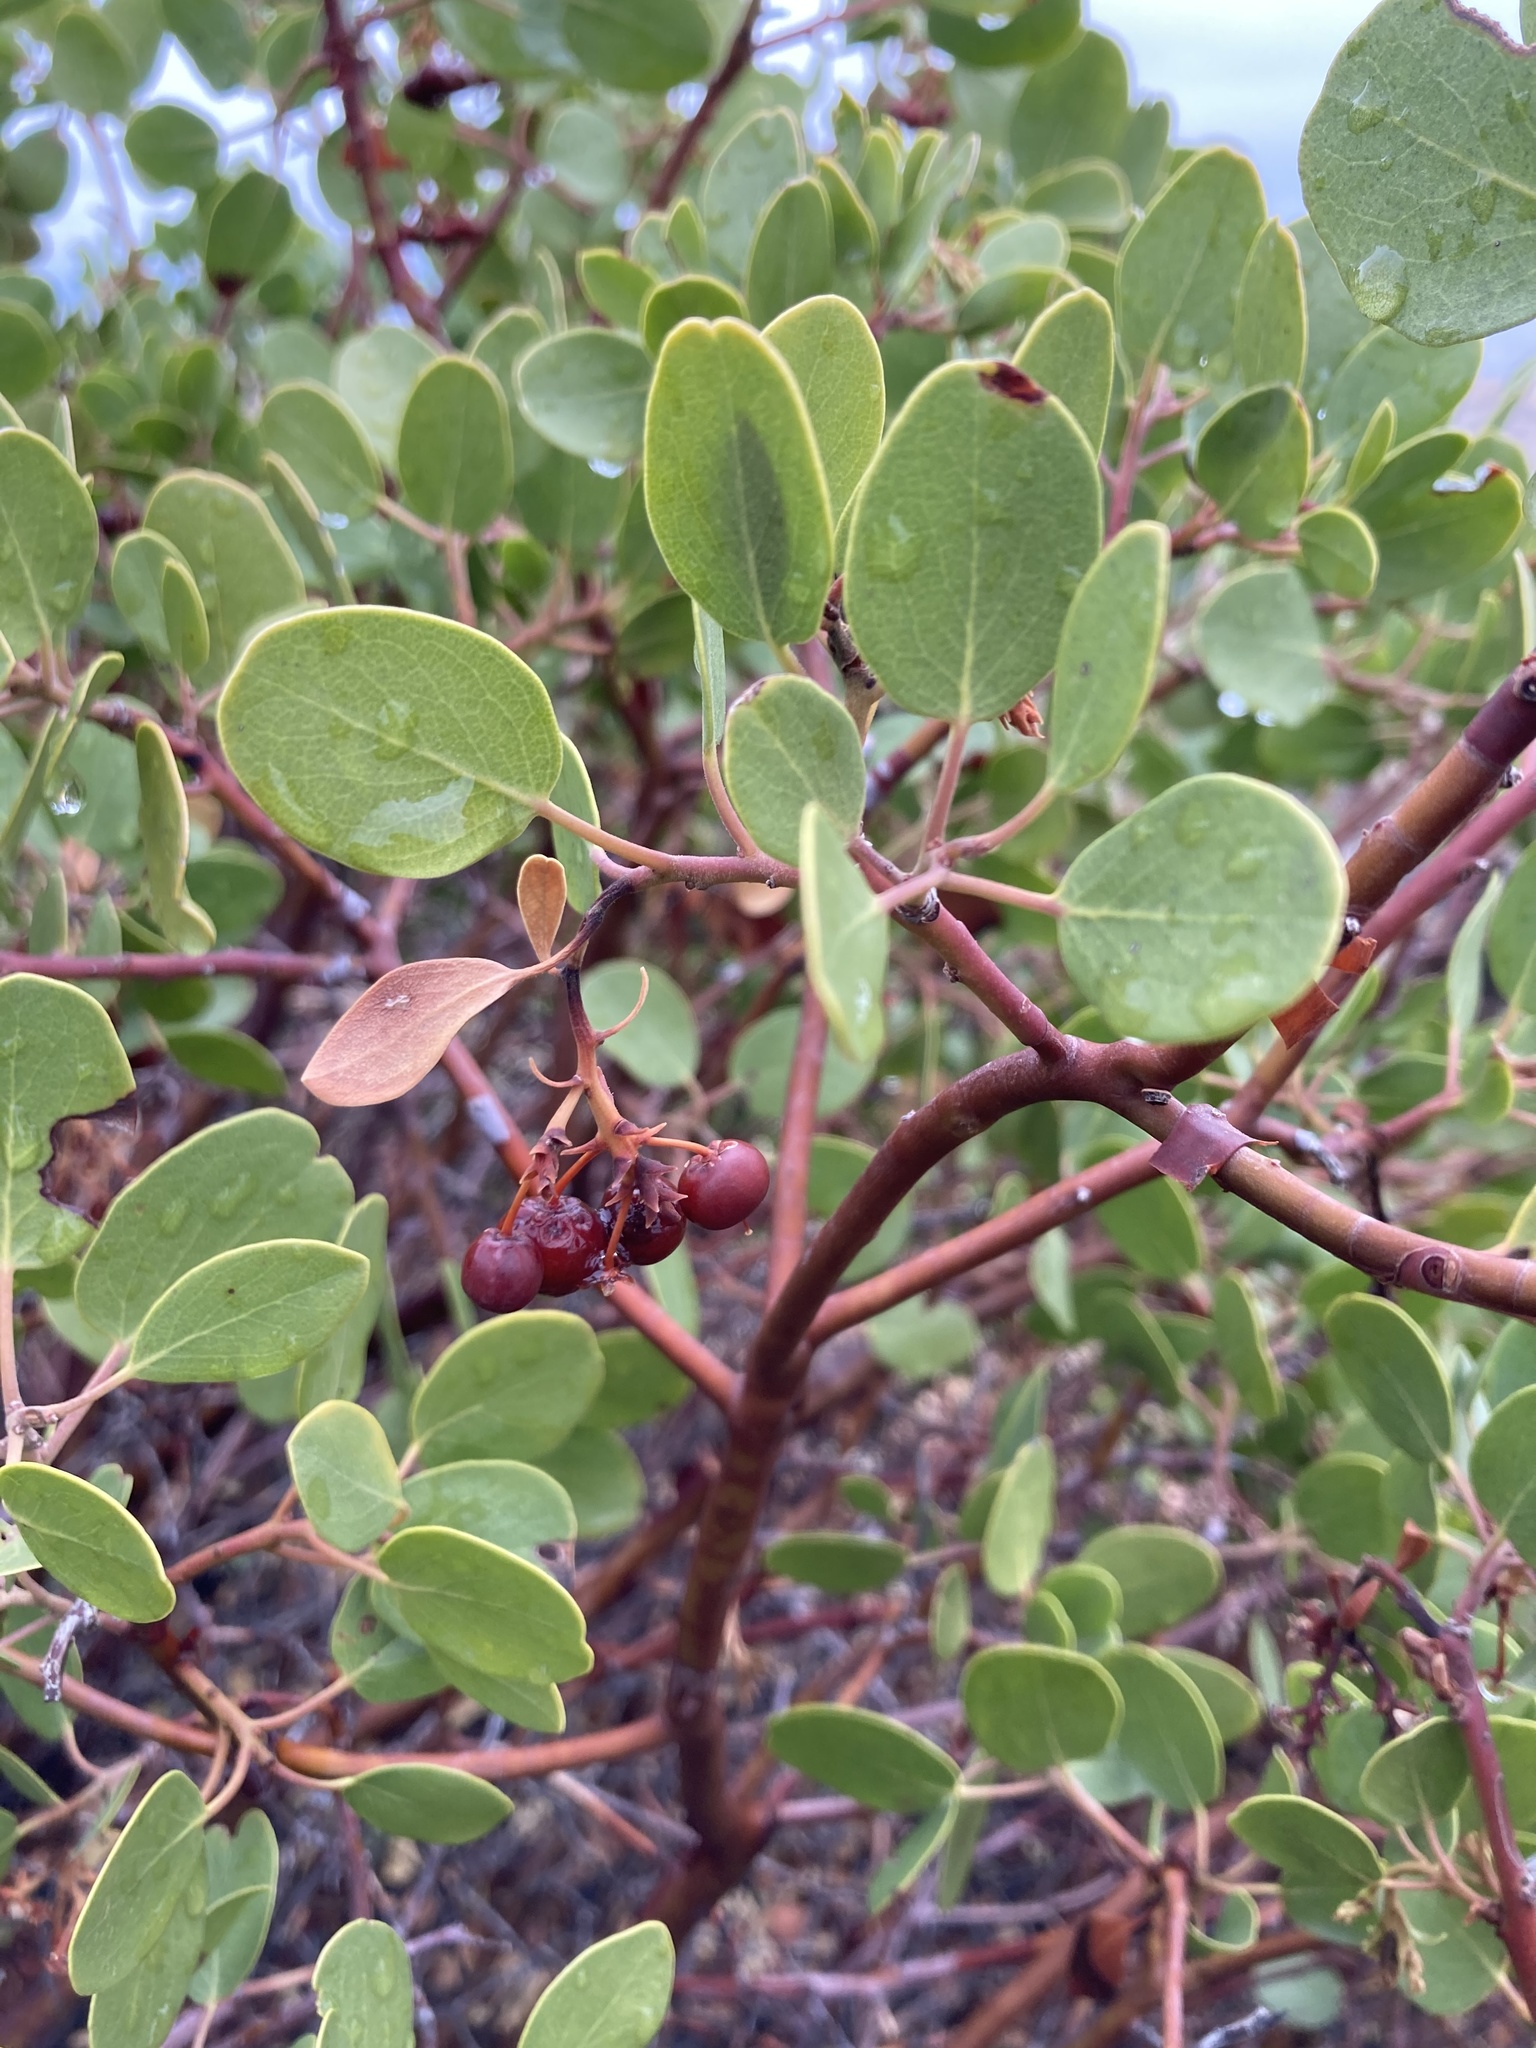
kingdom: Plantae
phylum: Tracheophyta
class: Magnoliopsida
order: Ericales
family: Ericaceae
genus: Arctostaphylos
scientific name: Arctostaphylos patula
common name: Green-leaf manzanita
